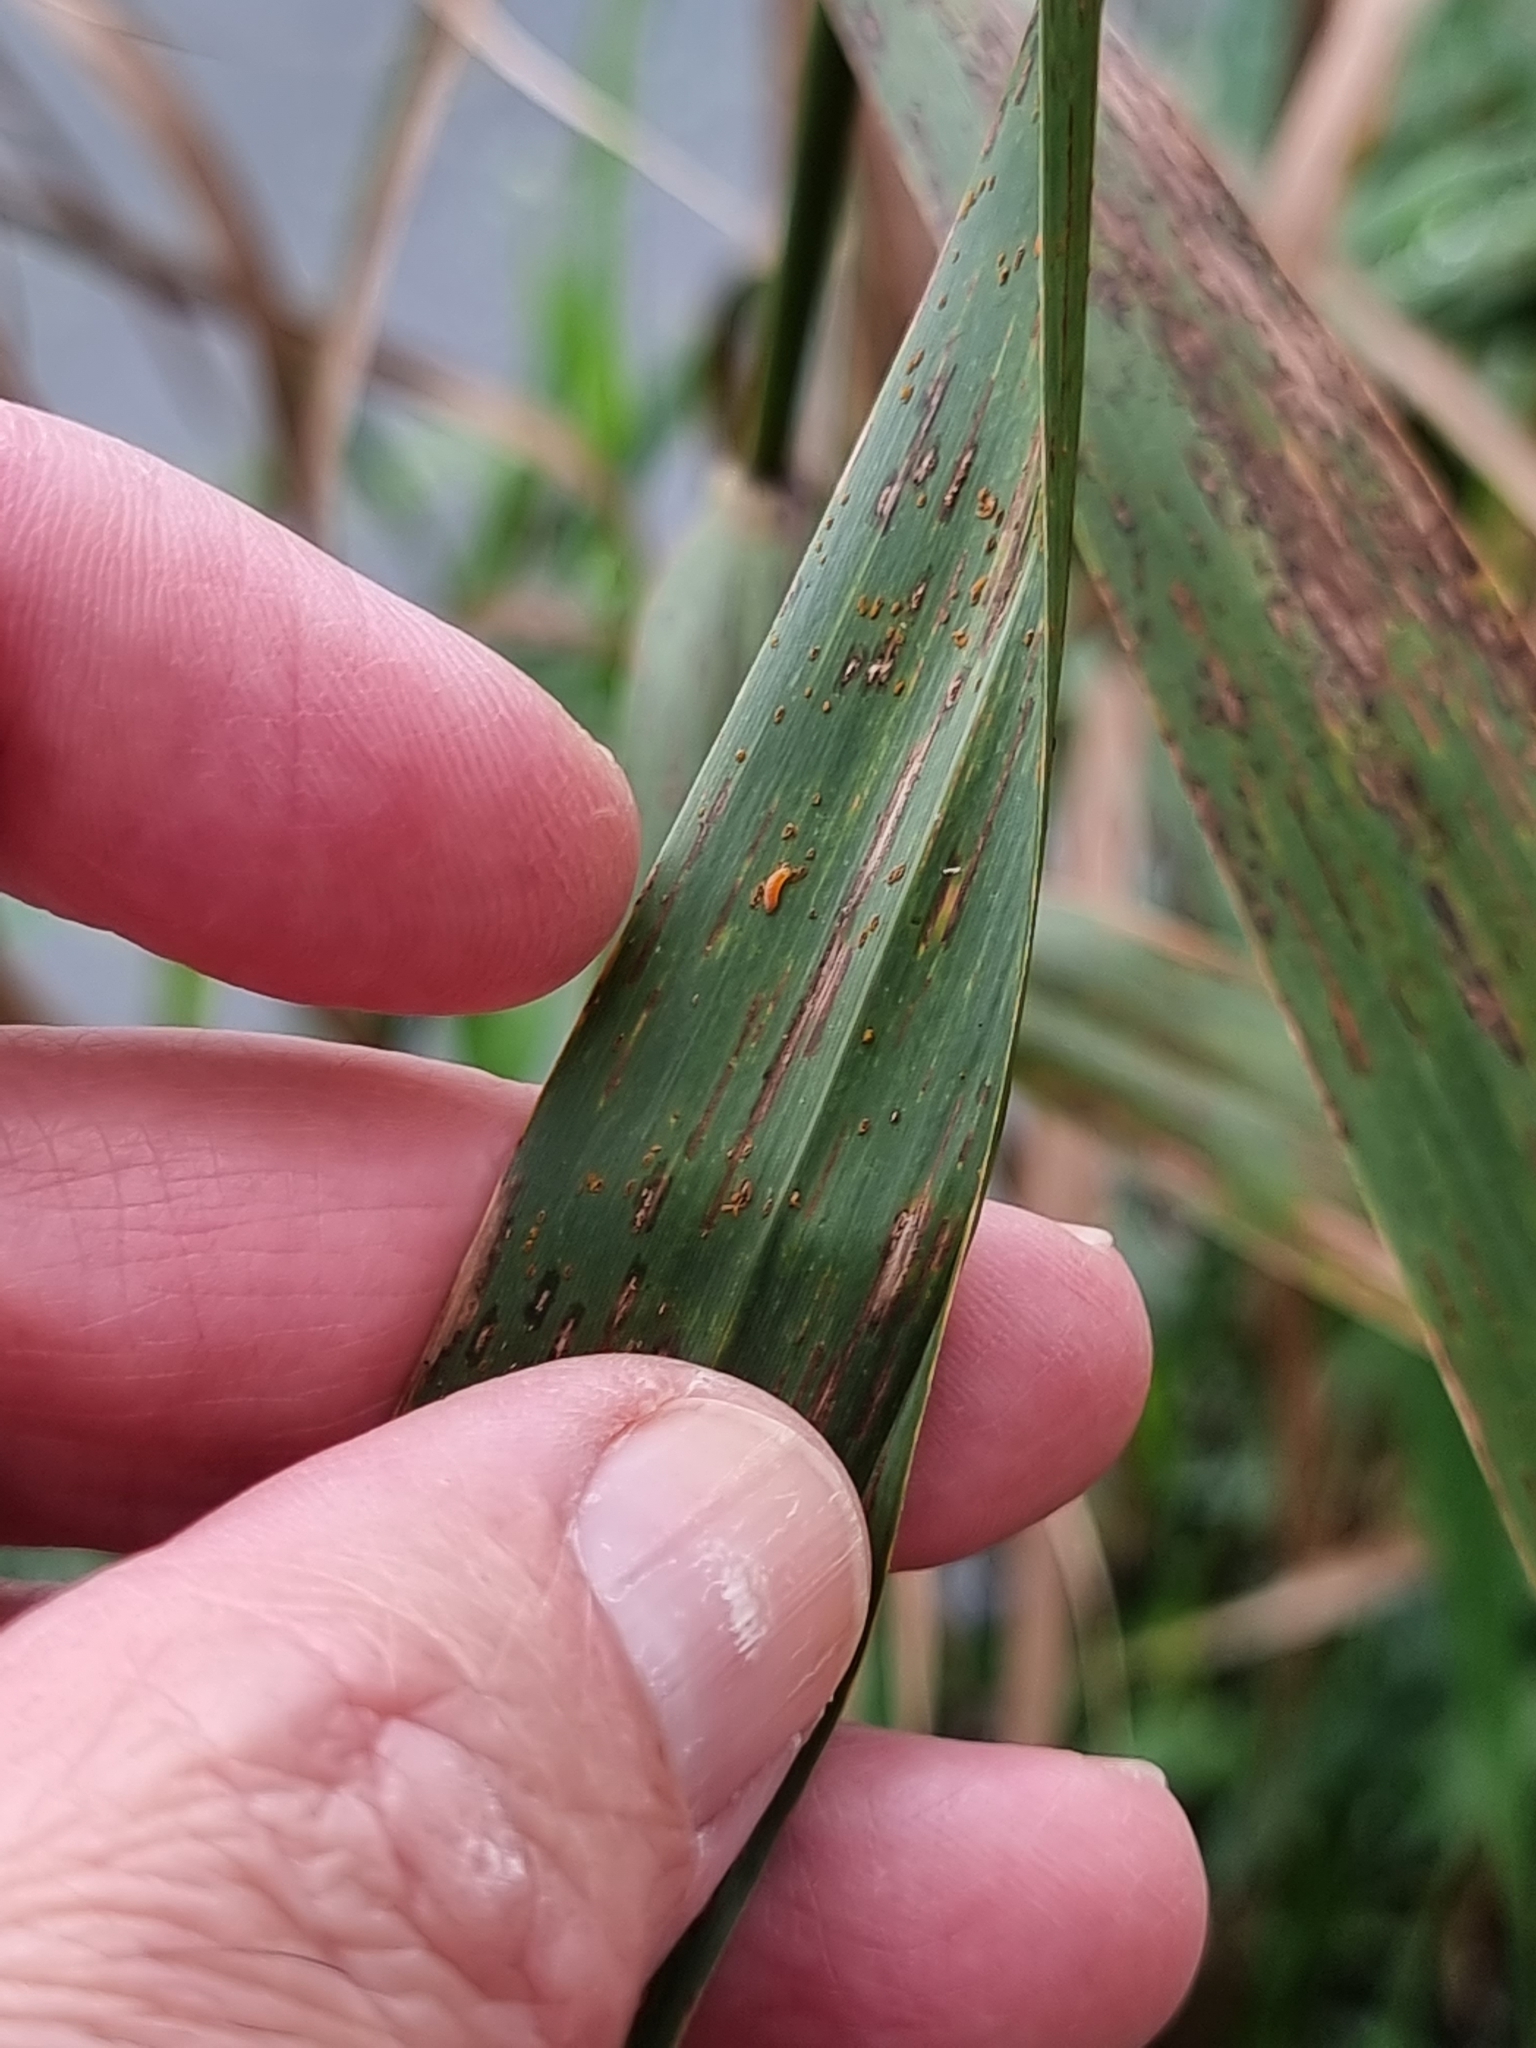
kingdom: Plantae
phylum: Tracheophyta
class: Liliopsida
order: Poales
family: Poaceae
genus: Phragmites
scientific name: Phragmites australis
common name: Common reed
